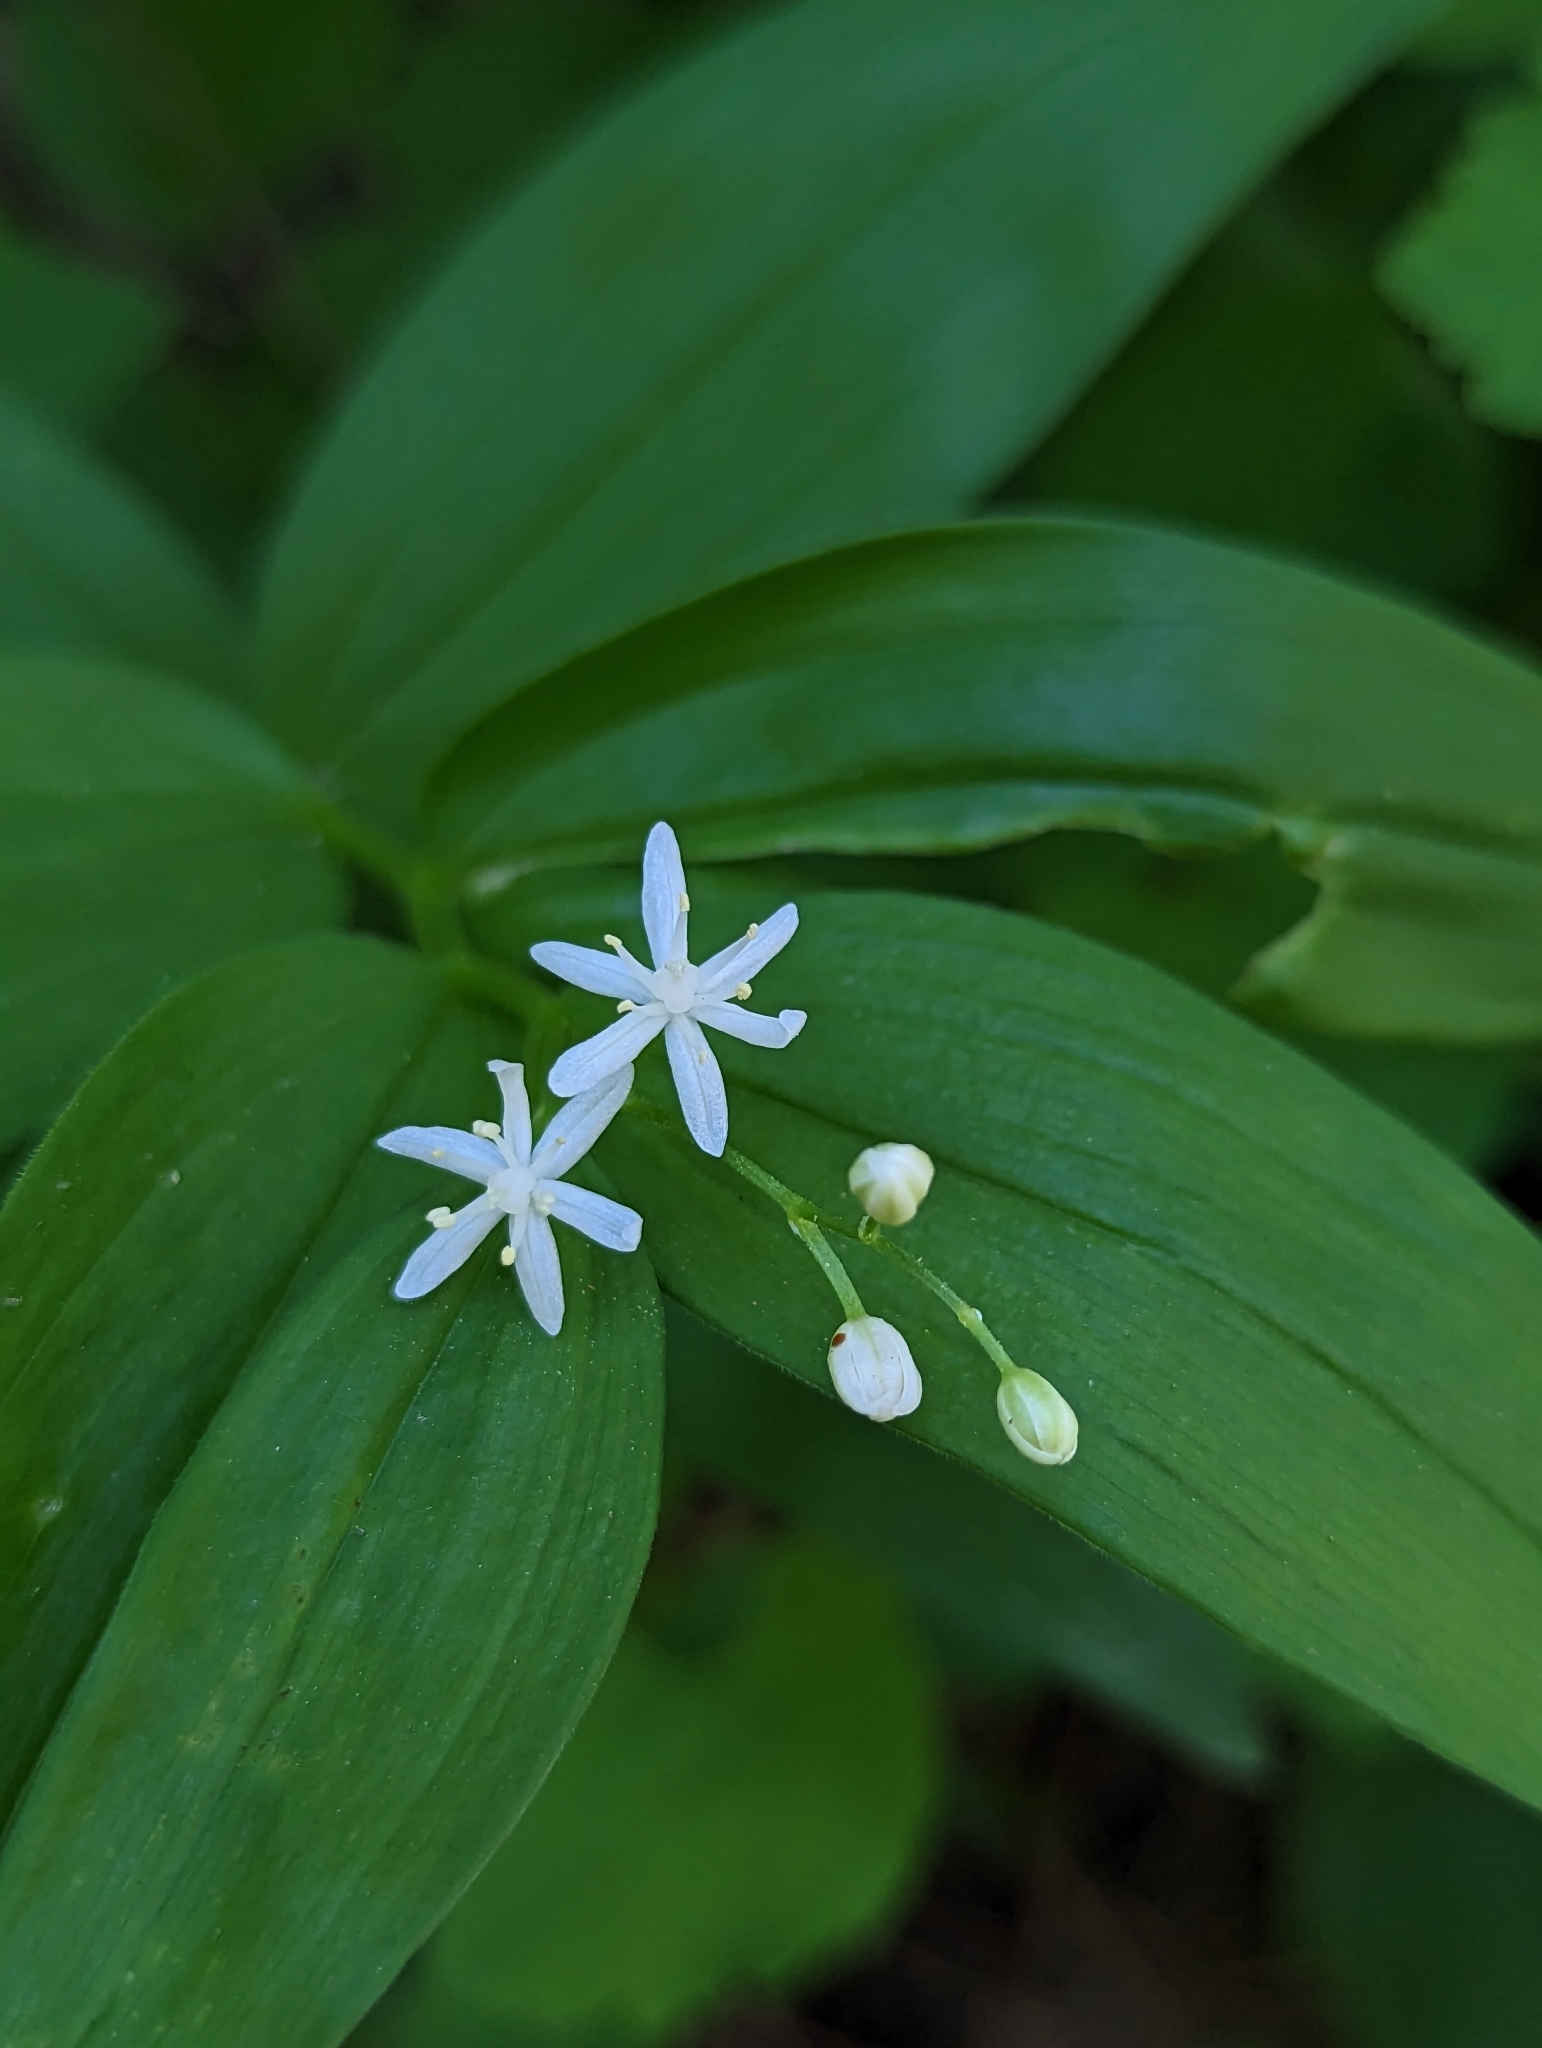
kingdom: Plantae
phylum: Tracheophyta
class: Liliopsida
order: Asparagales
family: Asparagaceae
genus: Maianthemum
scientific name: Maianthemum stellatum
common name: Little false solomon's seal
